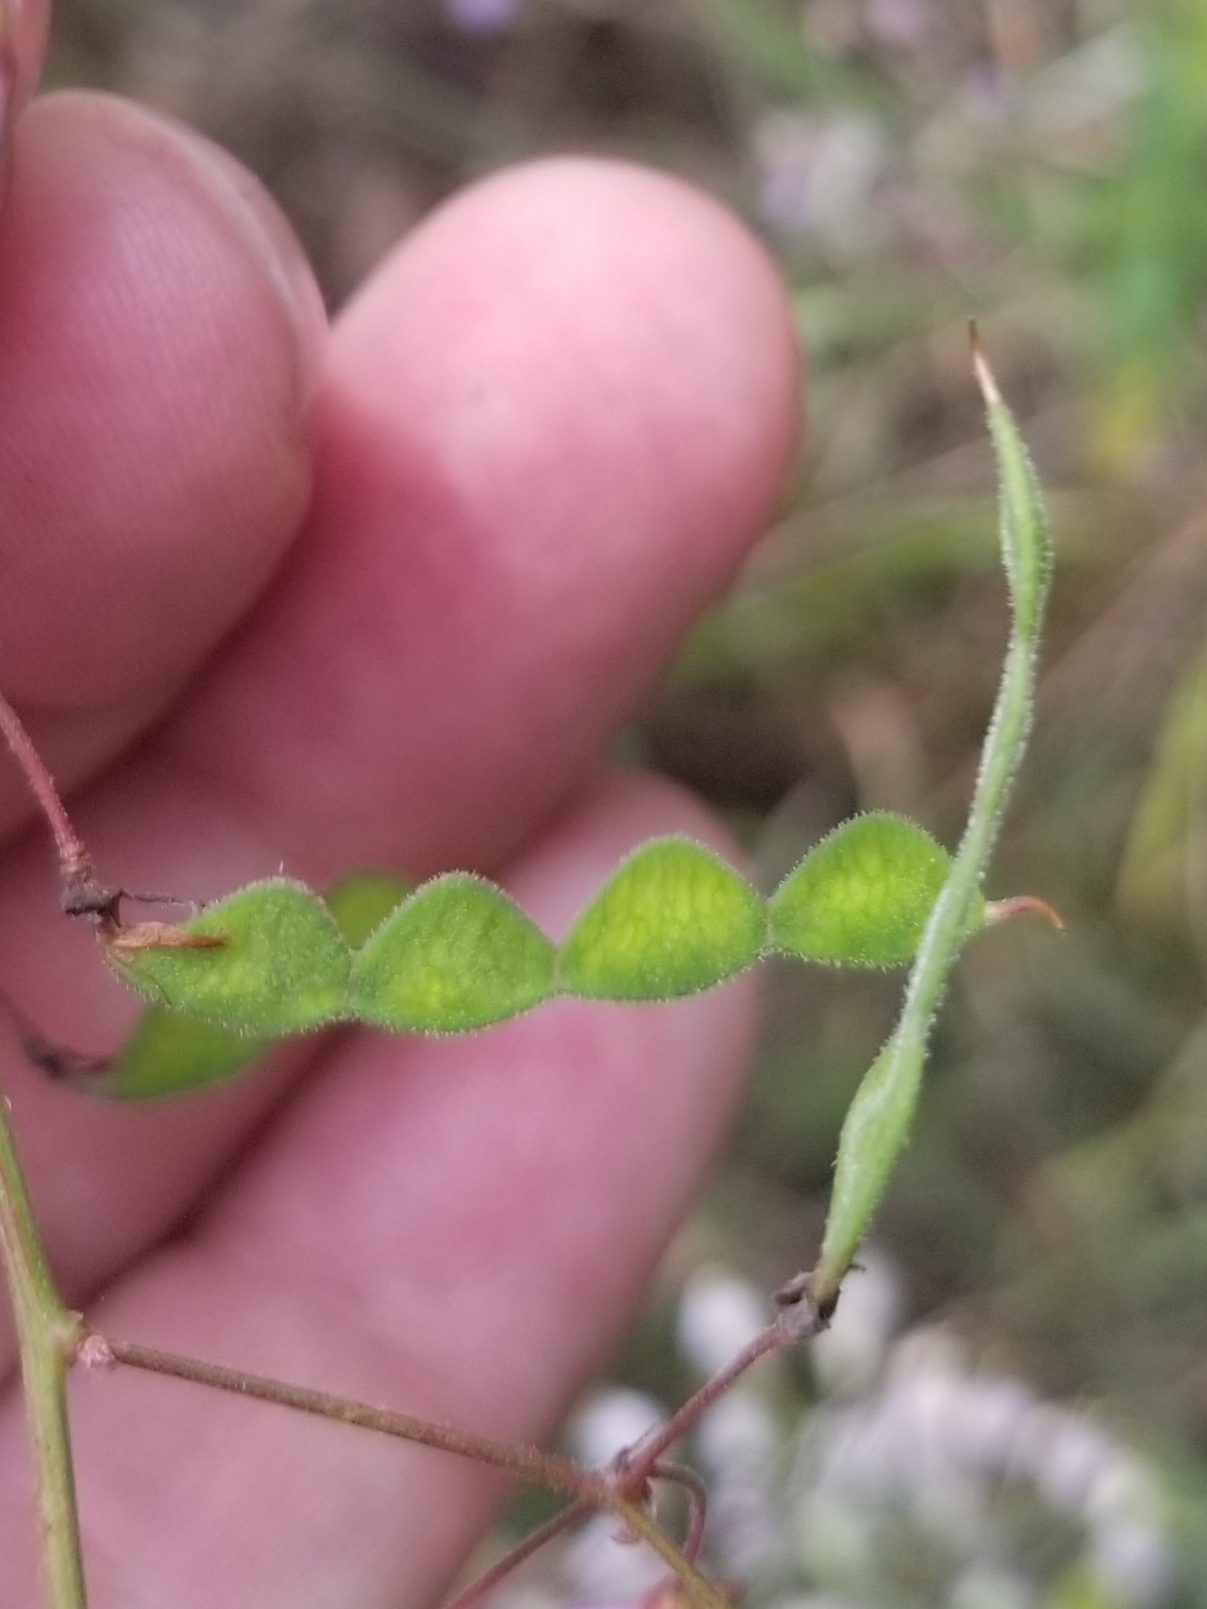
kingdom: Plantae
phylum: Tracheophyta
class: Magnoliopsida
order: Fabales
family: Fabaceae
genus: Desmodium
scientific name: Desmodium paniculatum
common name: Panicled tick-clover
